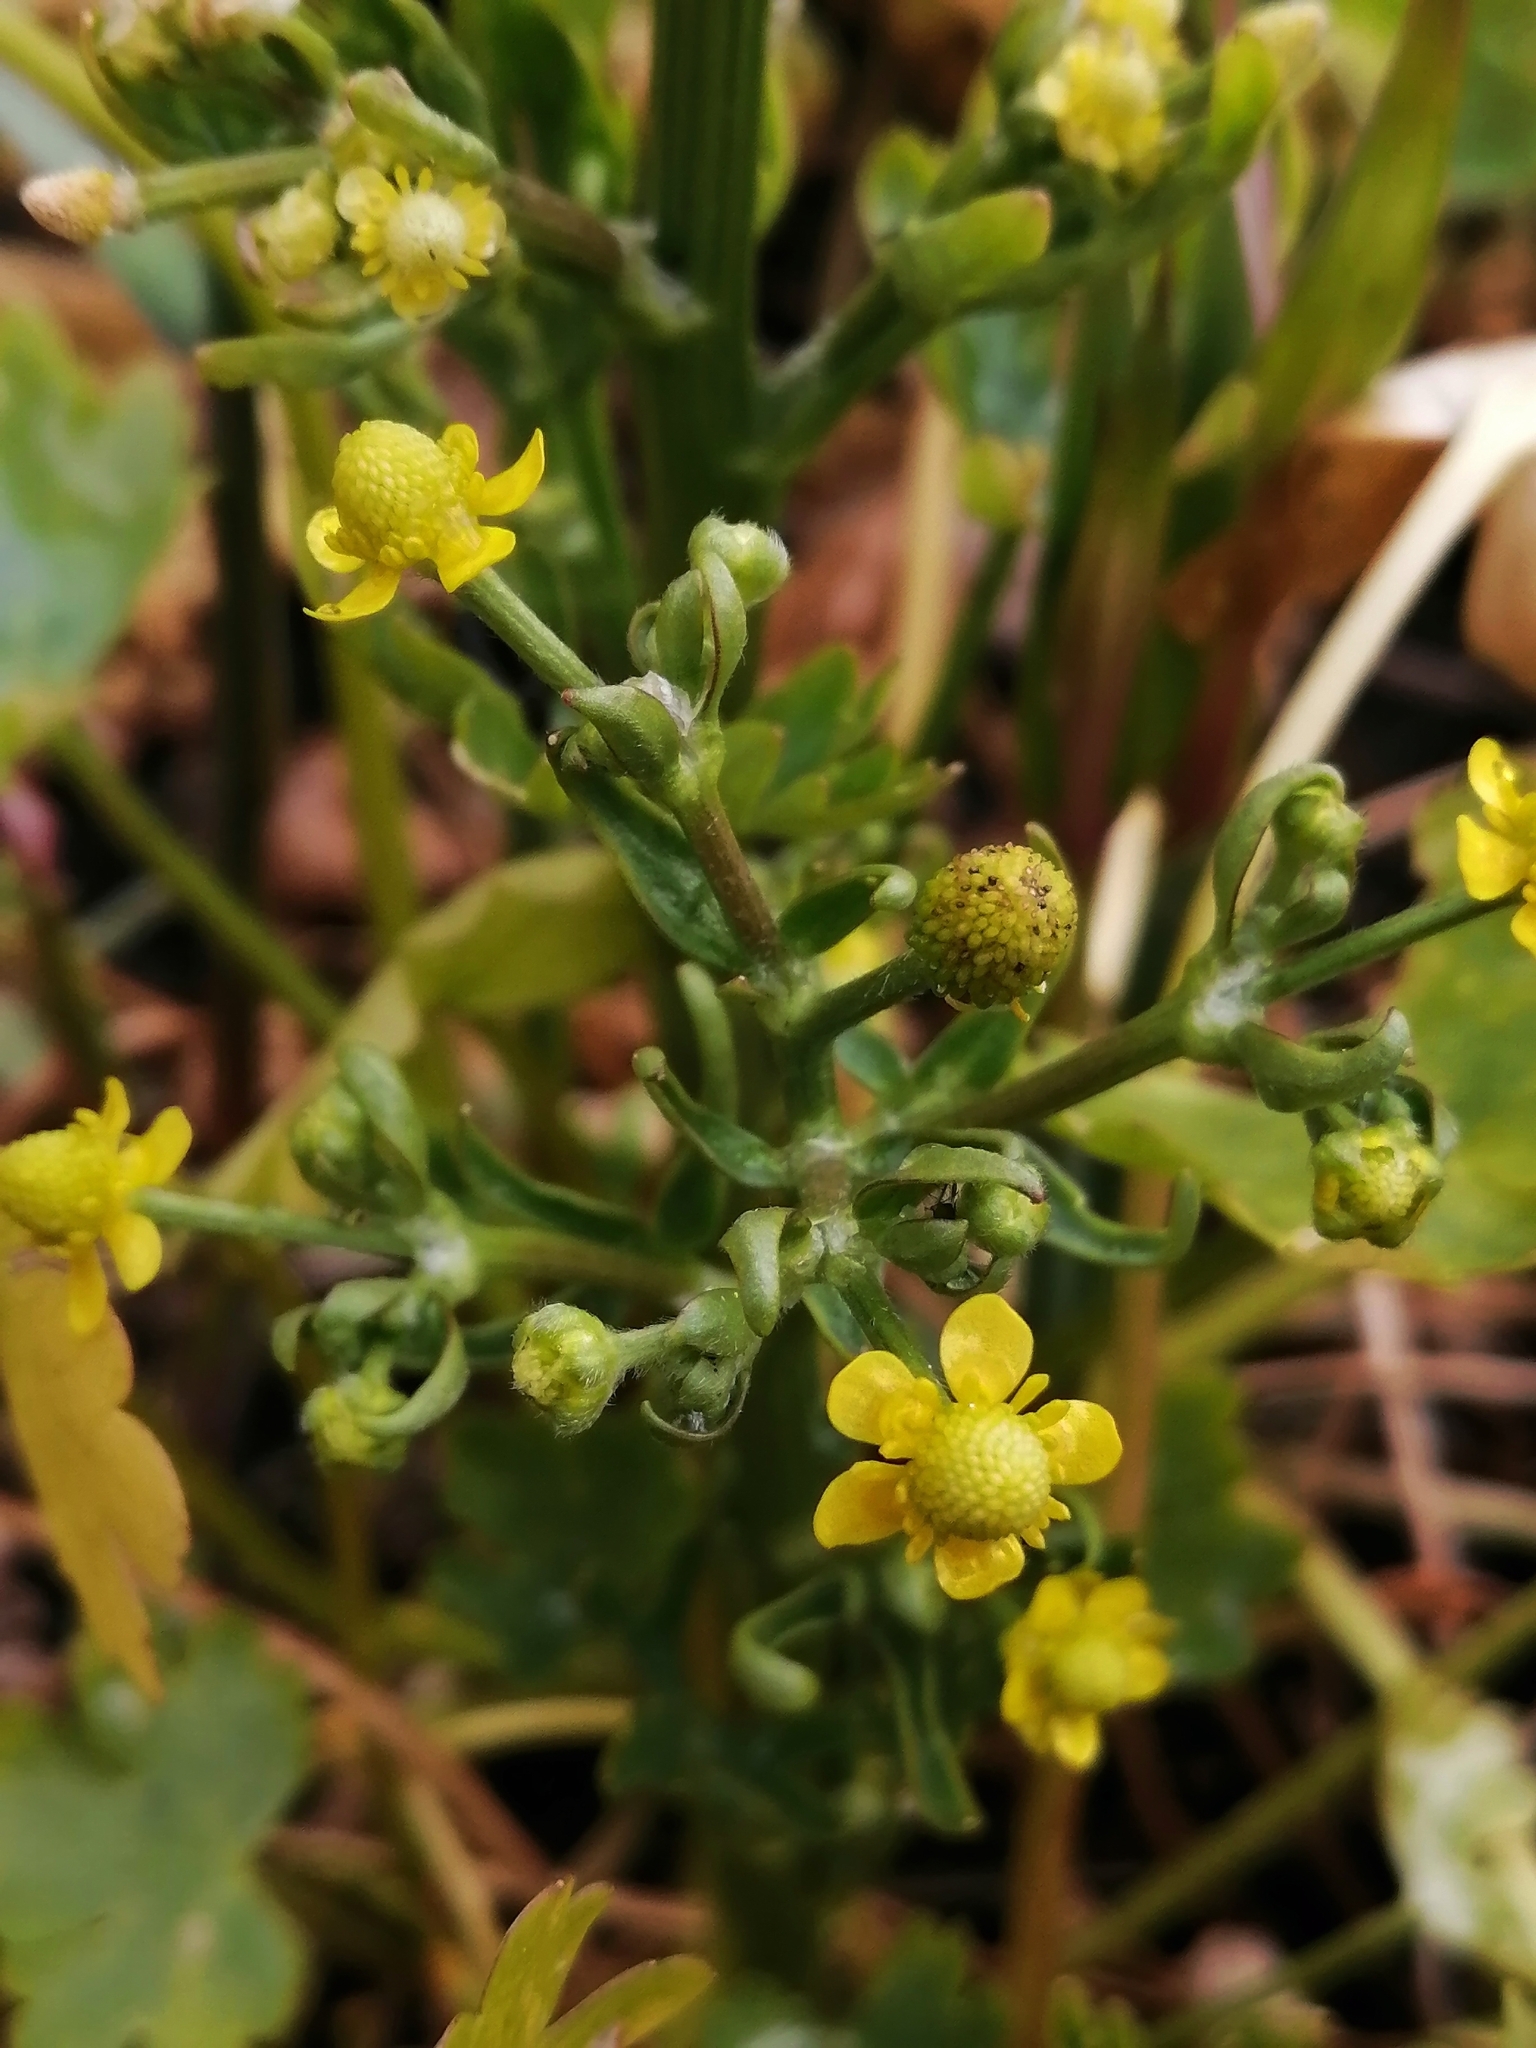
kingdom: Plantae
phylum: Tracheophyta
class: Magnoliopsida
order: Ranunculales
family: Ranunculaceae
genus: Ranunculus
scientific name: Ranunculus sceleratus
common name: Celery-leaved buttercup
